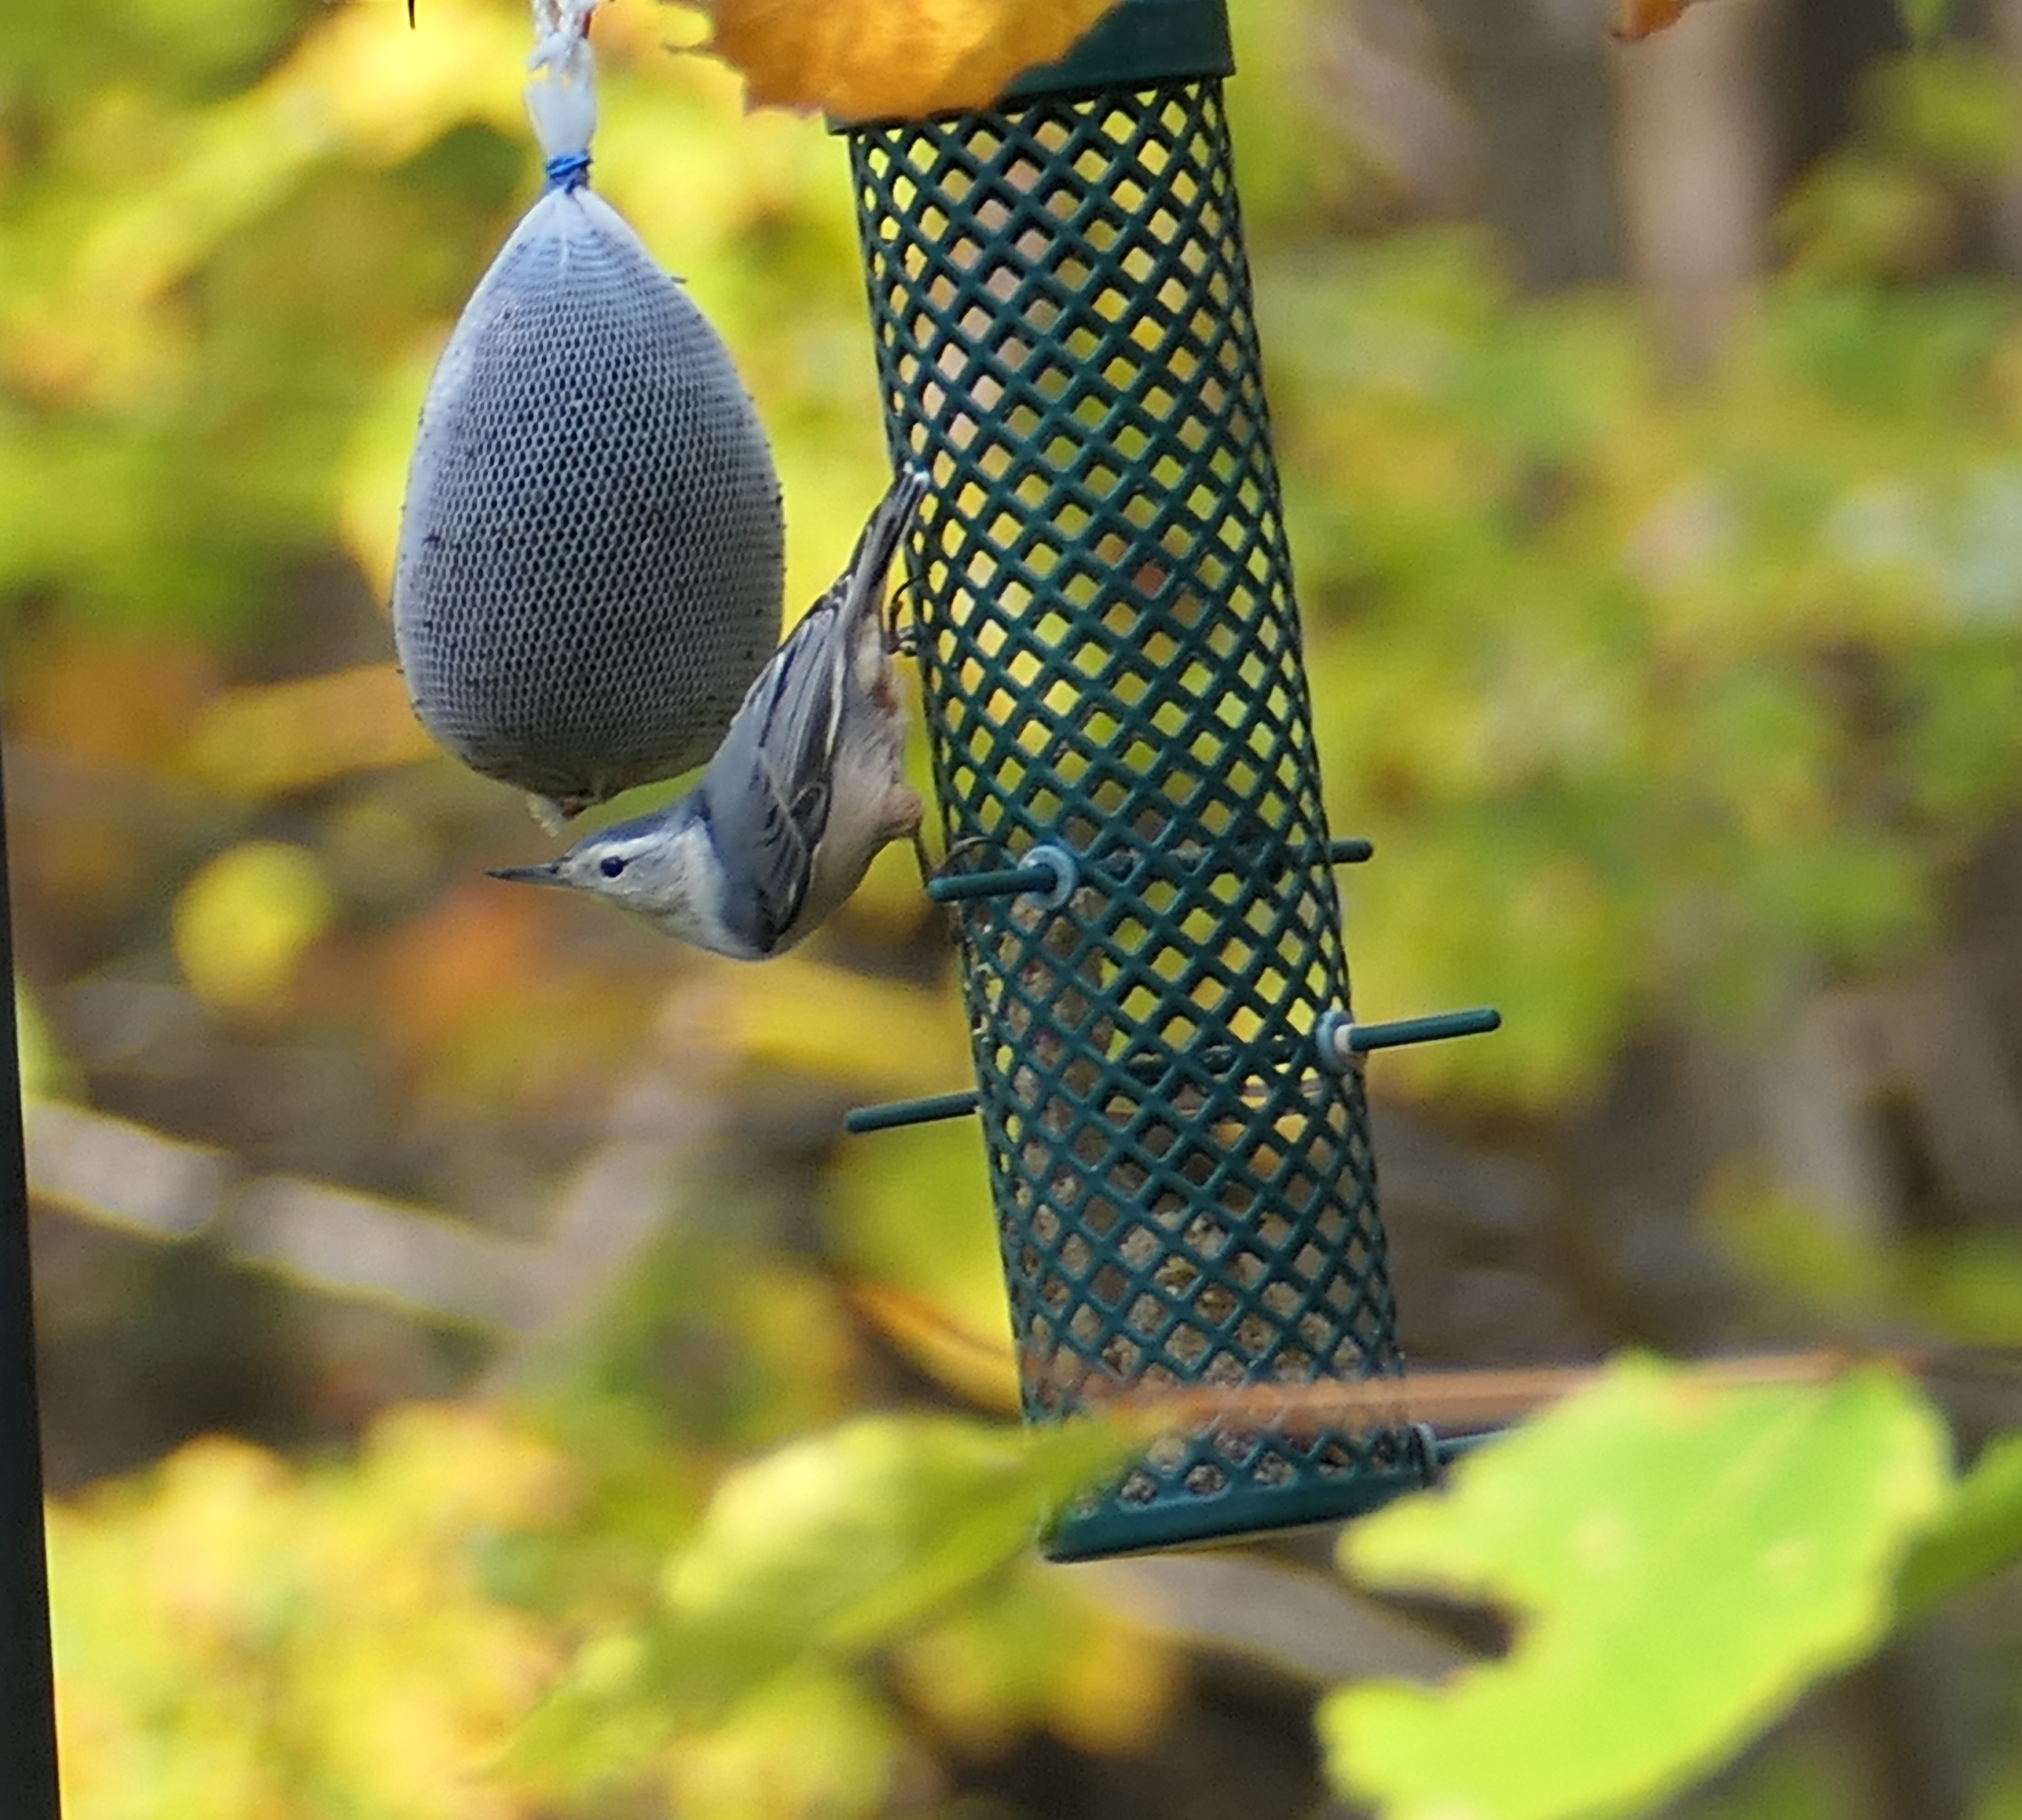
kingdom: Animalia
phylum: Chordata
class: Aves
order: Passeriformes
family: Sittidae
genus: Sitta
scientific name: Sitta carolinensis
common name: White-breasted nuthatch
